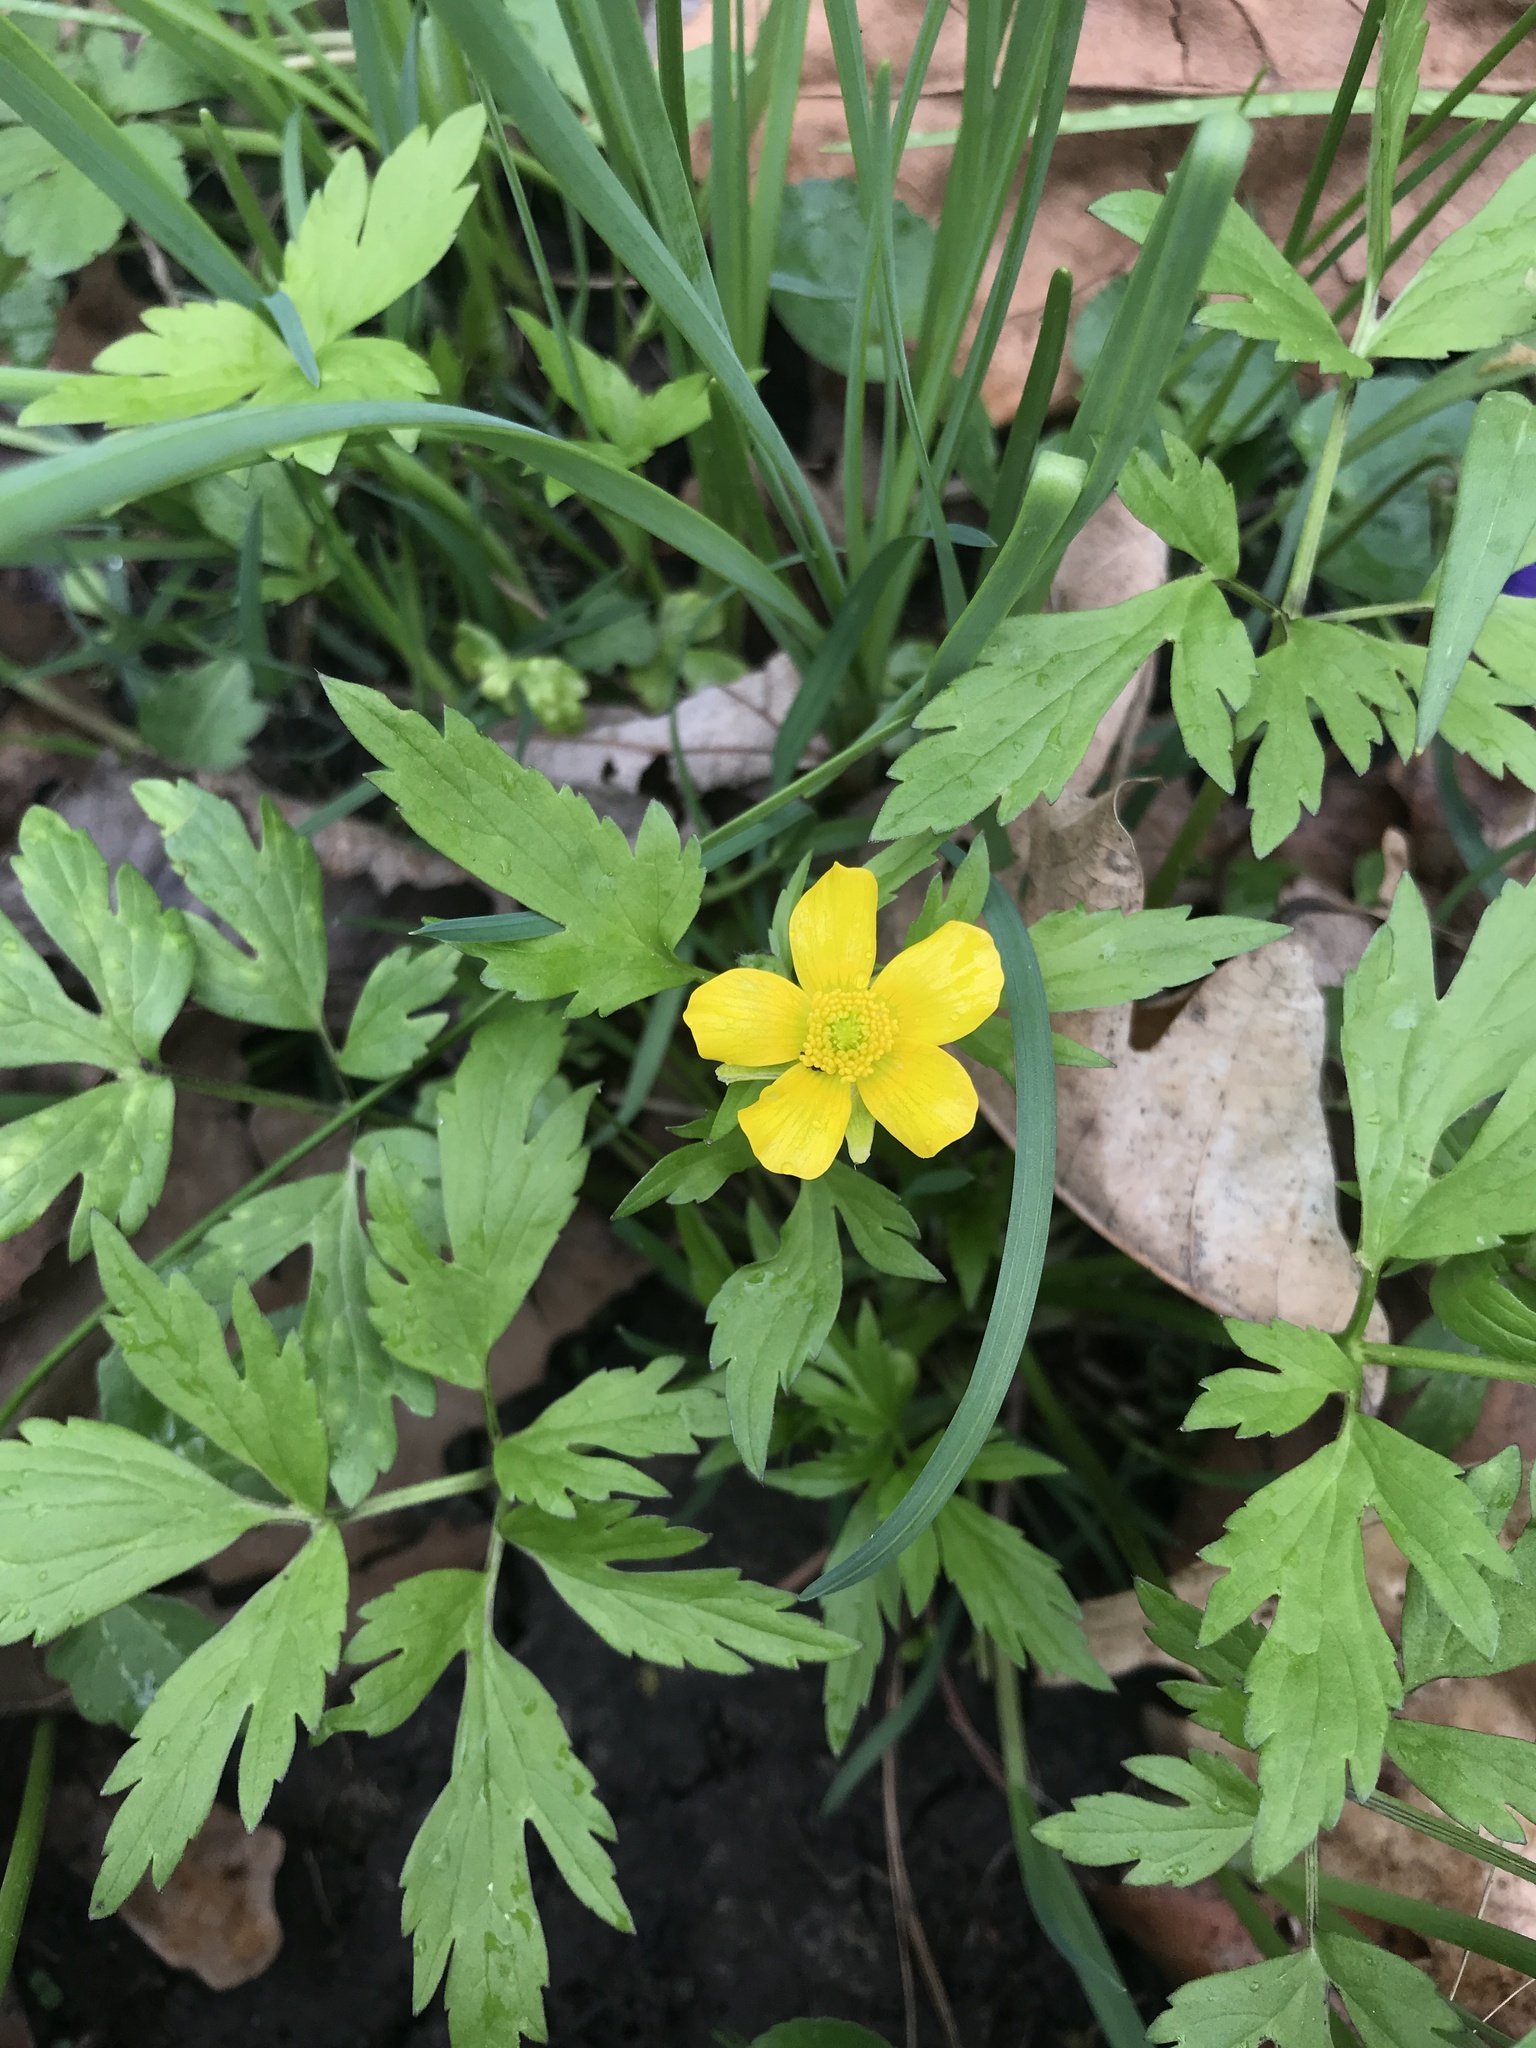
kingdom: Plantae
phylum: Tracheophyta
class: Magnoliopsida
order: Ranunculales
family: Ranunculaceae
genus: Ranunculus
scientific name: Ranunculus hispidus
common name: Bristly buttercup
